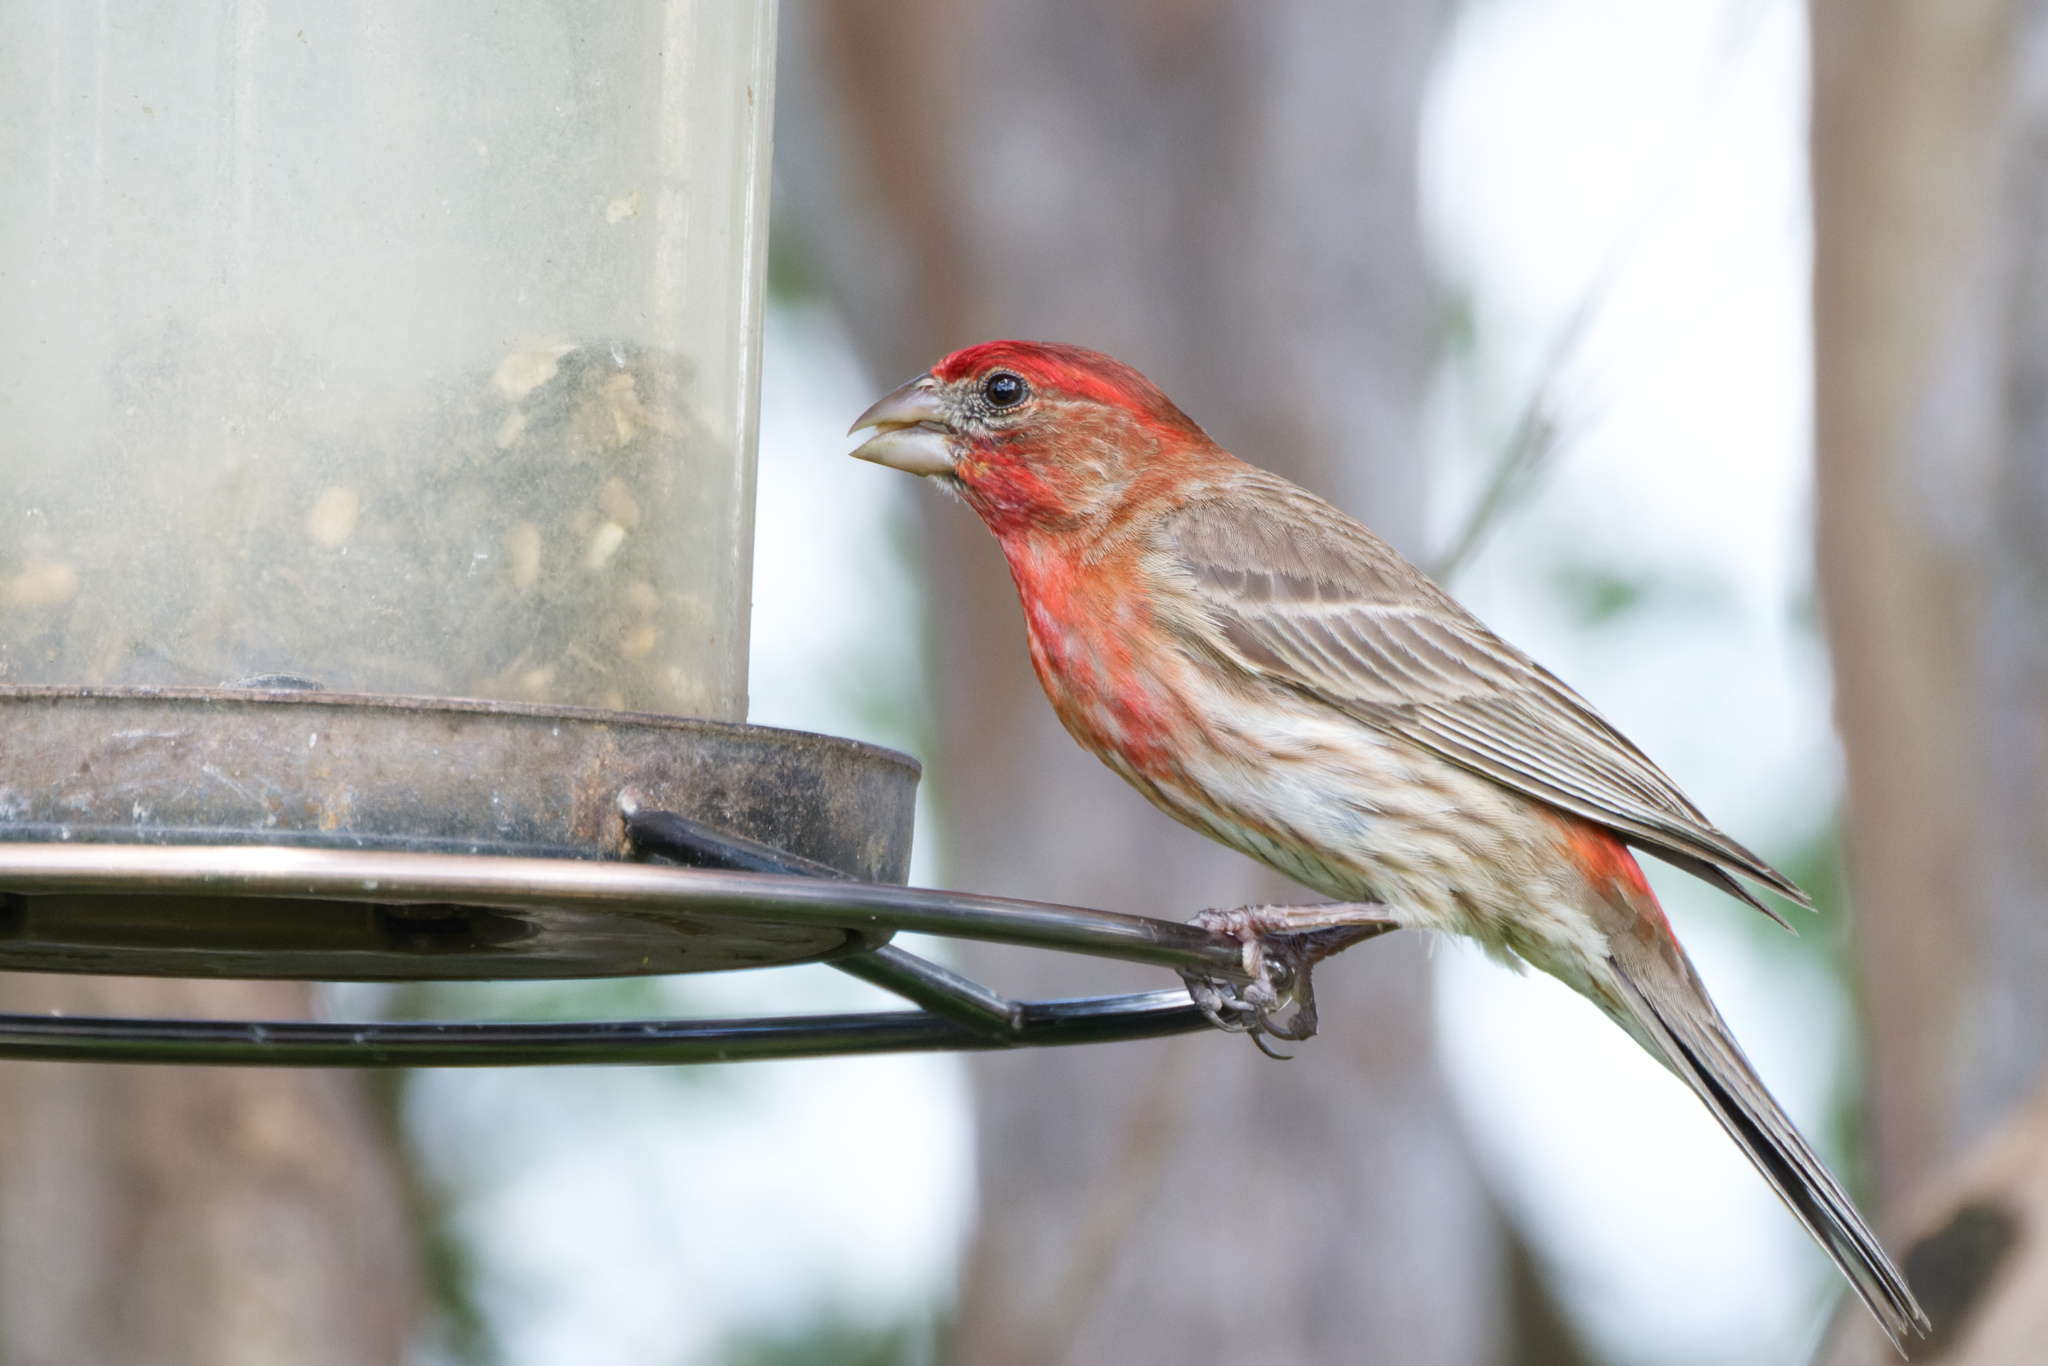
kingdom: Animalia
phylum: Chordata
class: Aves
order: Passeriformes
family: Fringillidae
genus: Haemorhous
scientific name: Haemorhous mexicanus
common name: House finch
